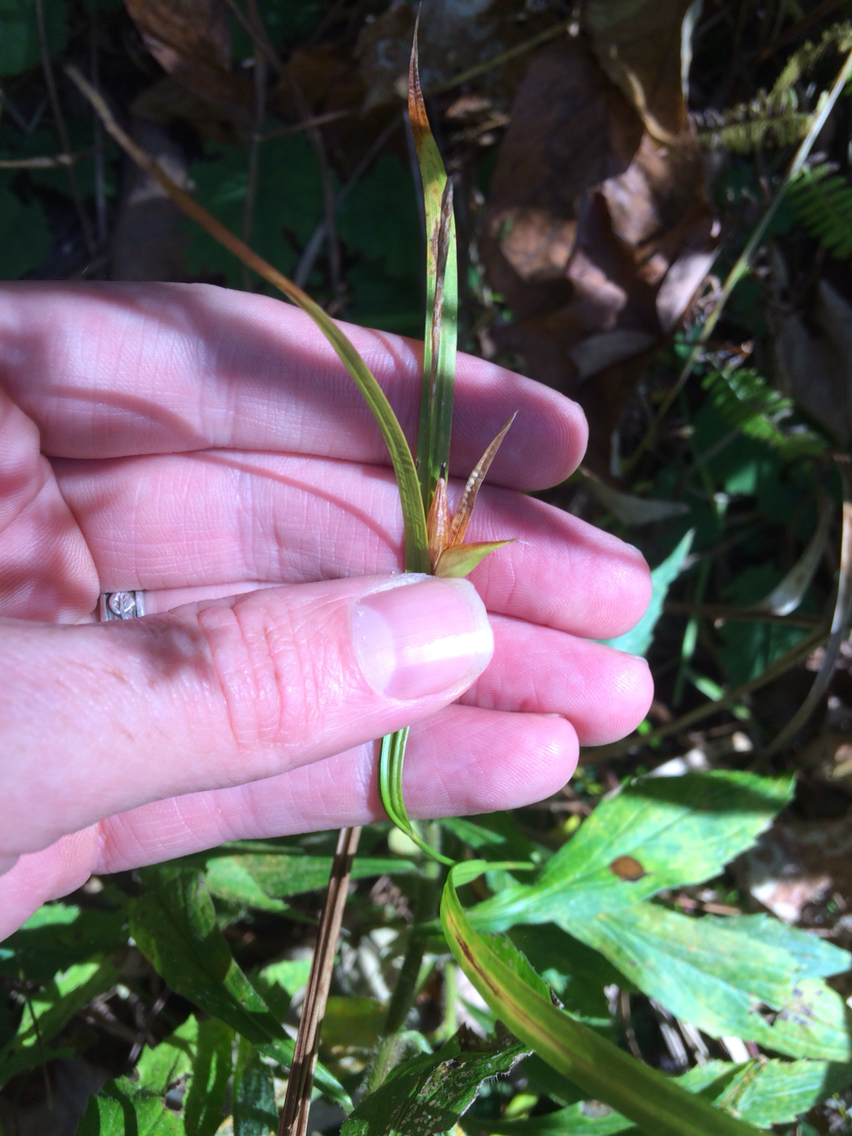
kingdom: Plantae
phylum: Tracheophyta
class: Liliopsida
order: Poales
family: Cyperaceae
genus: Carex
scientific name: Carex intumescens
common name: Greater bladder sedge
